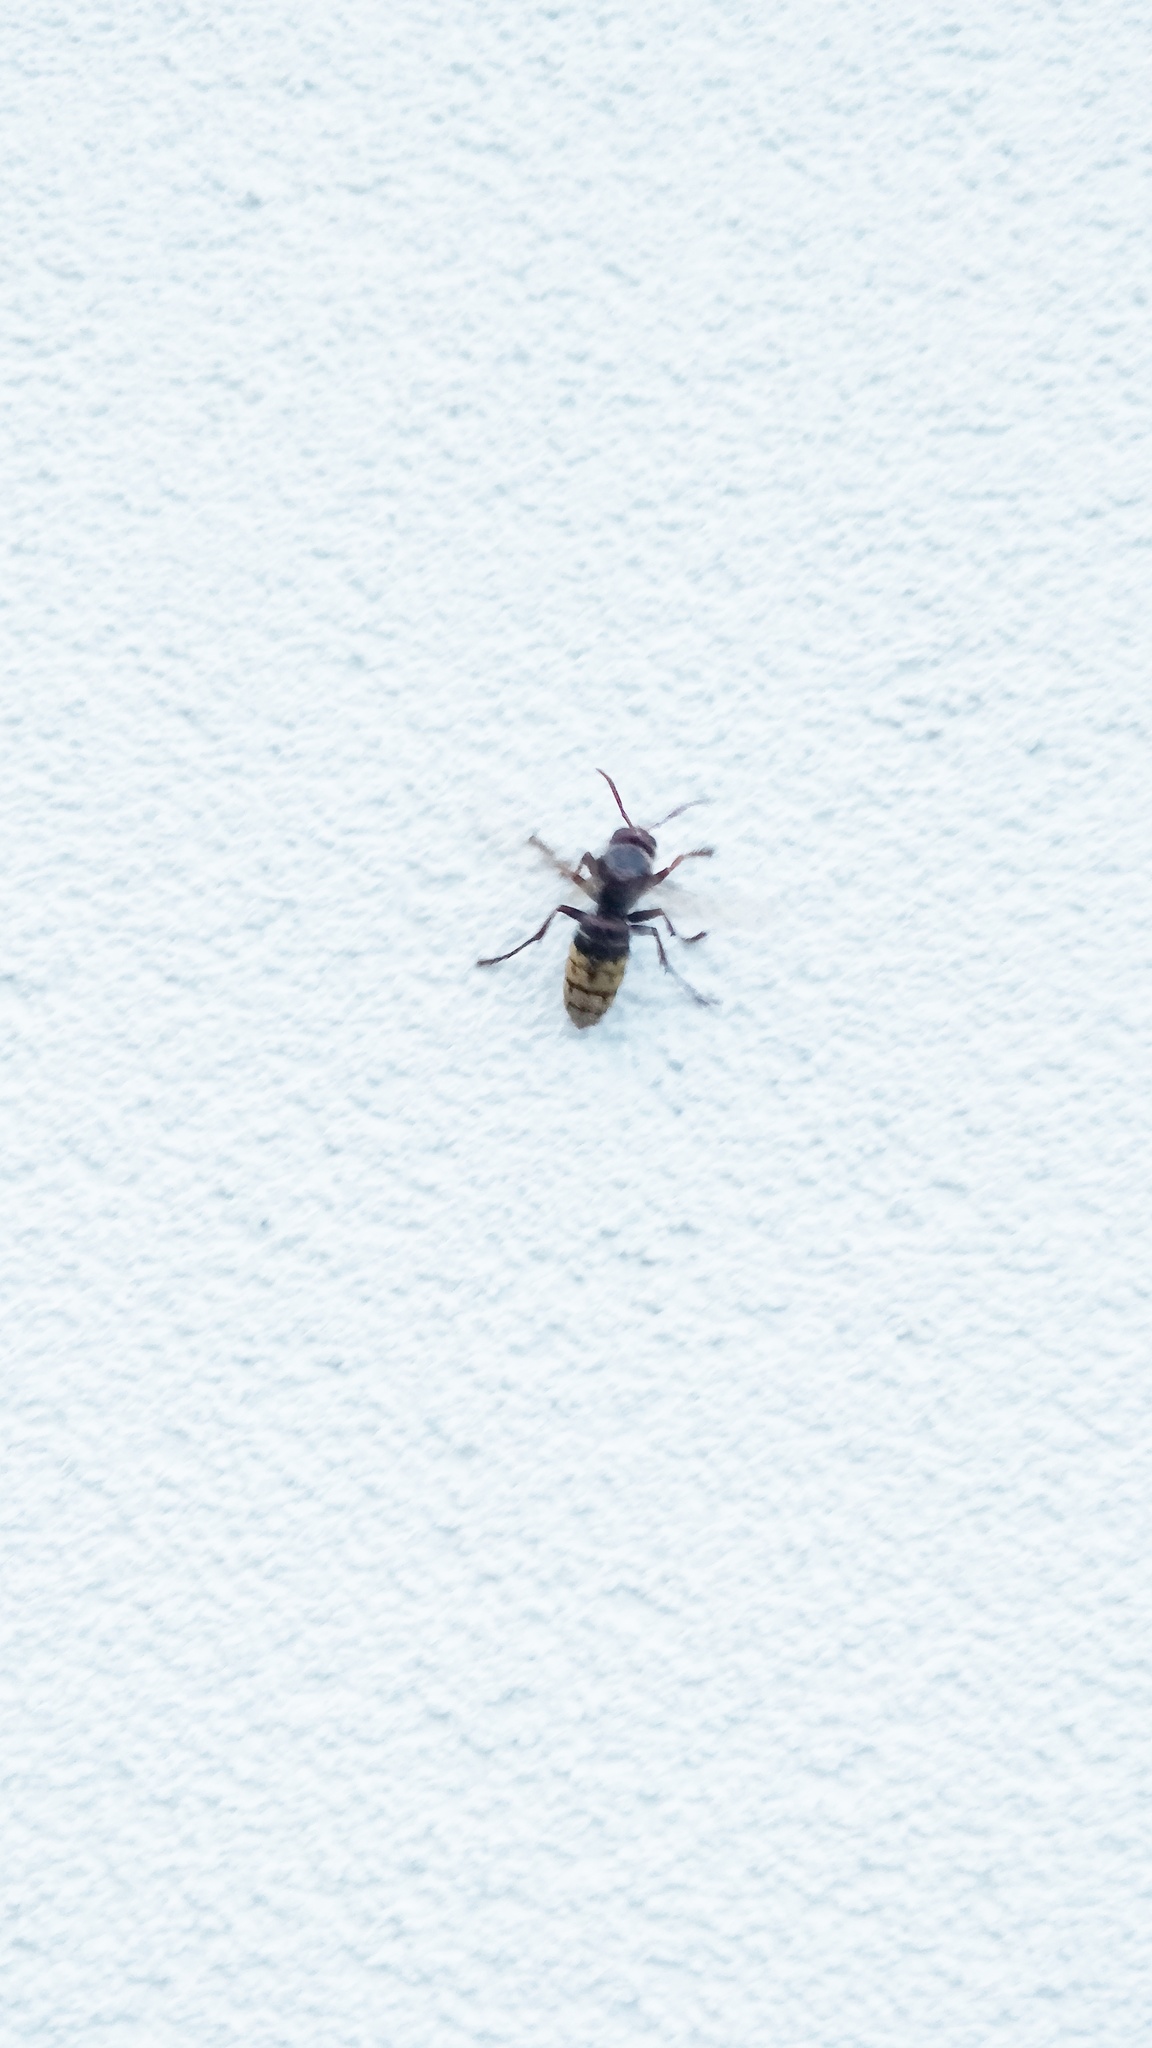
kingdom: Animalia
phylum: Arthropoda
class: Insecta
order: Hymenoptera
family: Vespidae
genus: Vespa
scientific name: Vespa crabro
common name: Hornet
